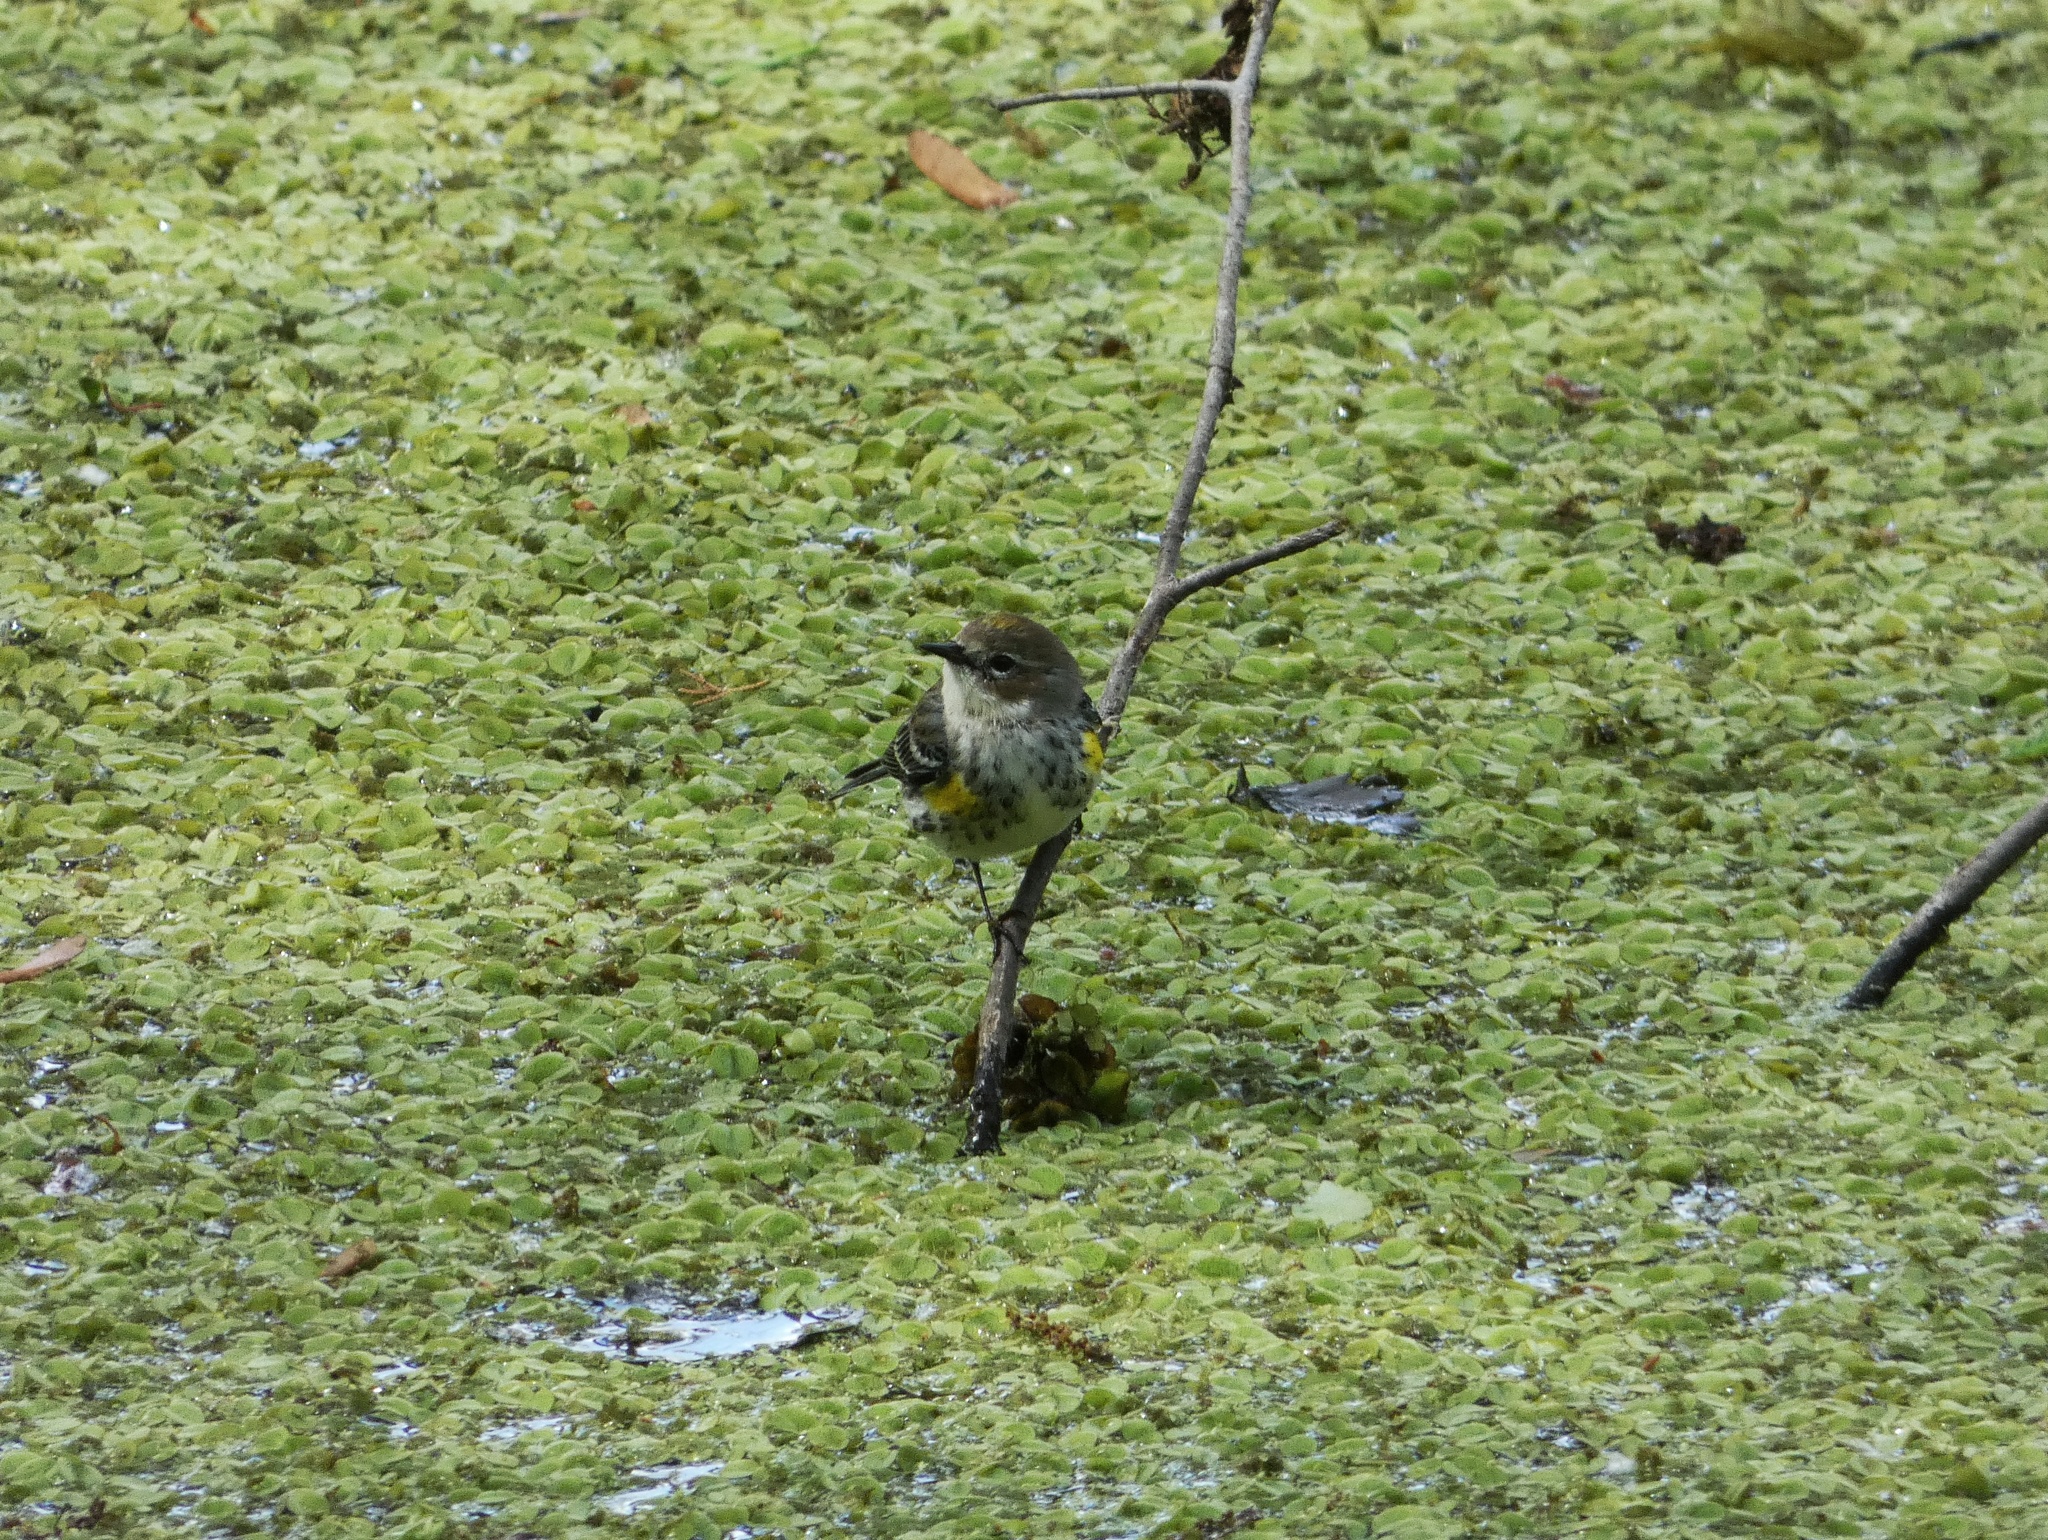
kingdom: Animalia
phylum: Chordata
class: Aves
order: Passeriformes
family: Parulidae
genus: Setophaga
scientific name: Setophaga coronata
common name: Myrtle warbler
